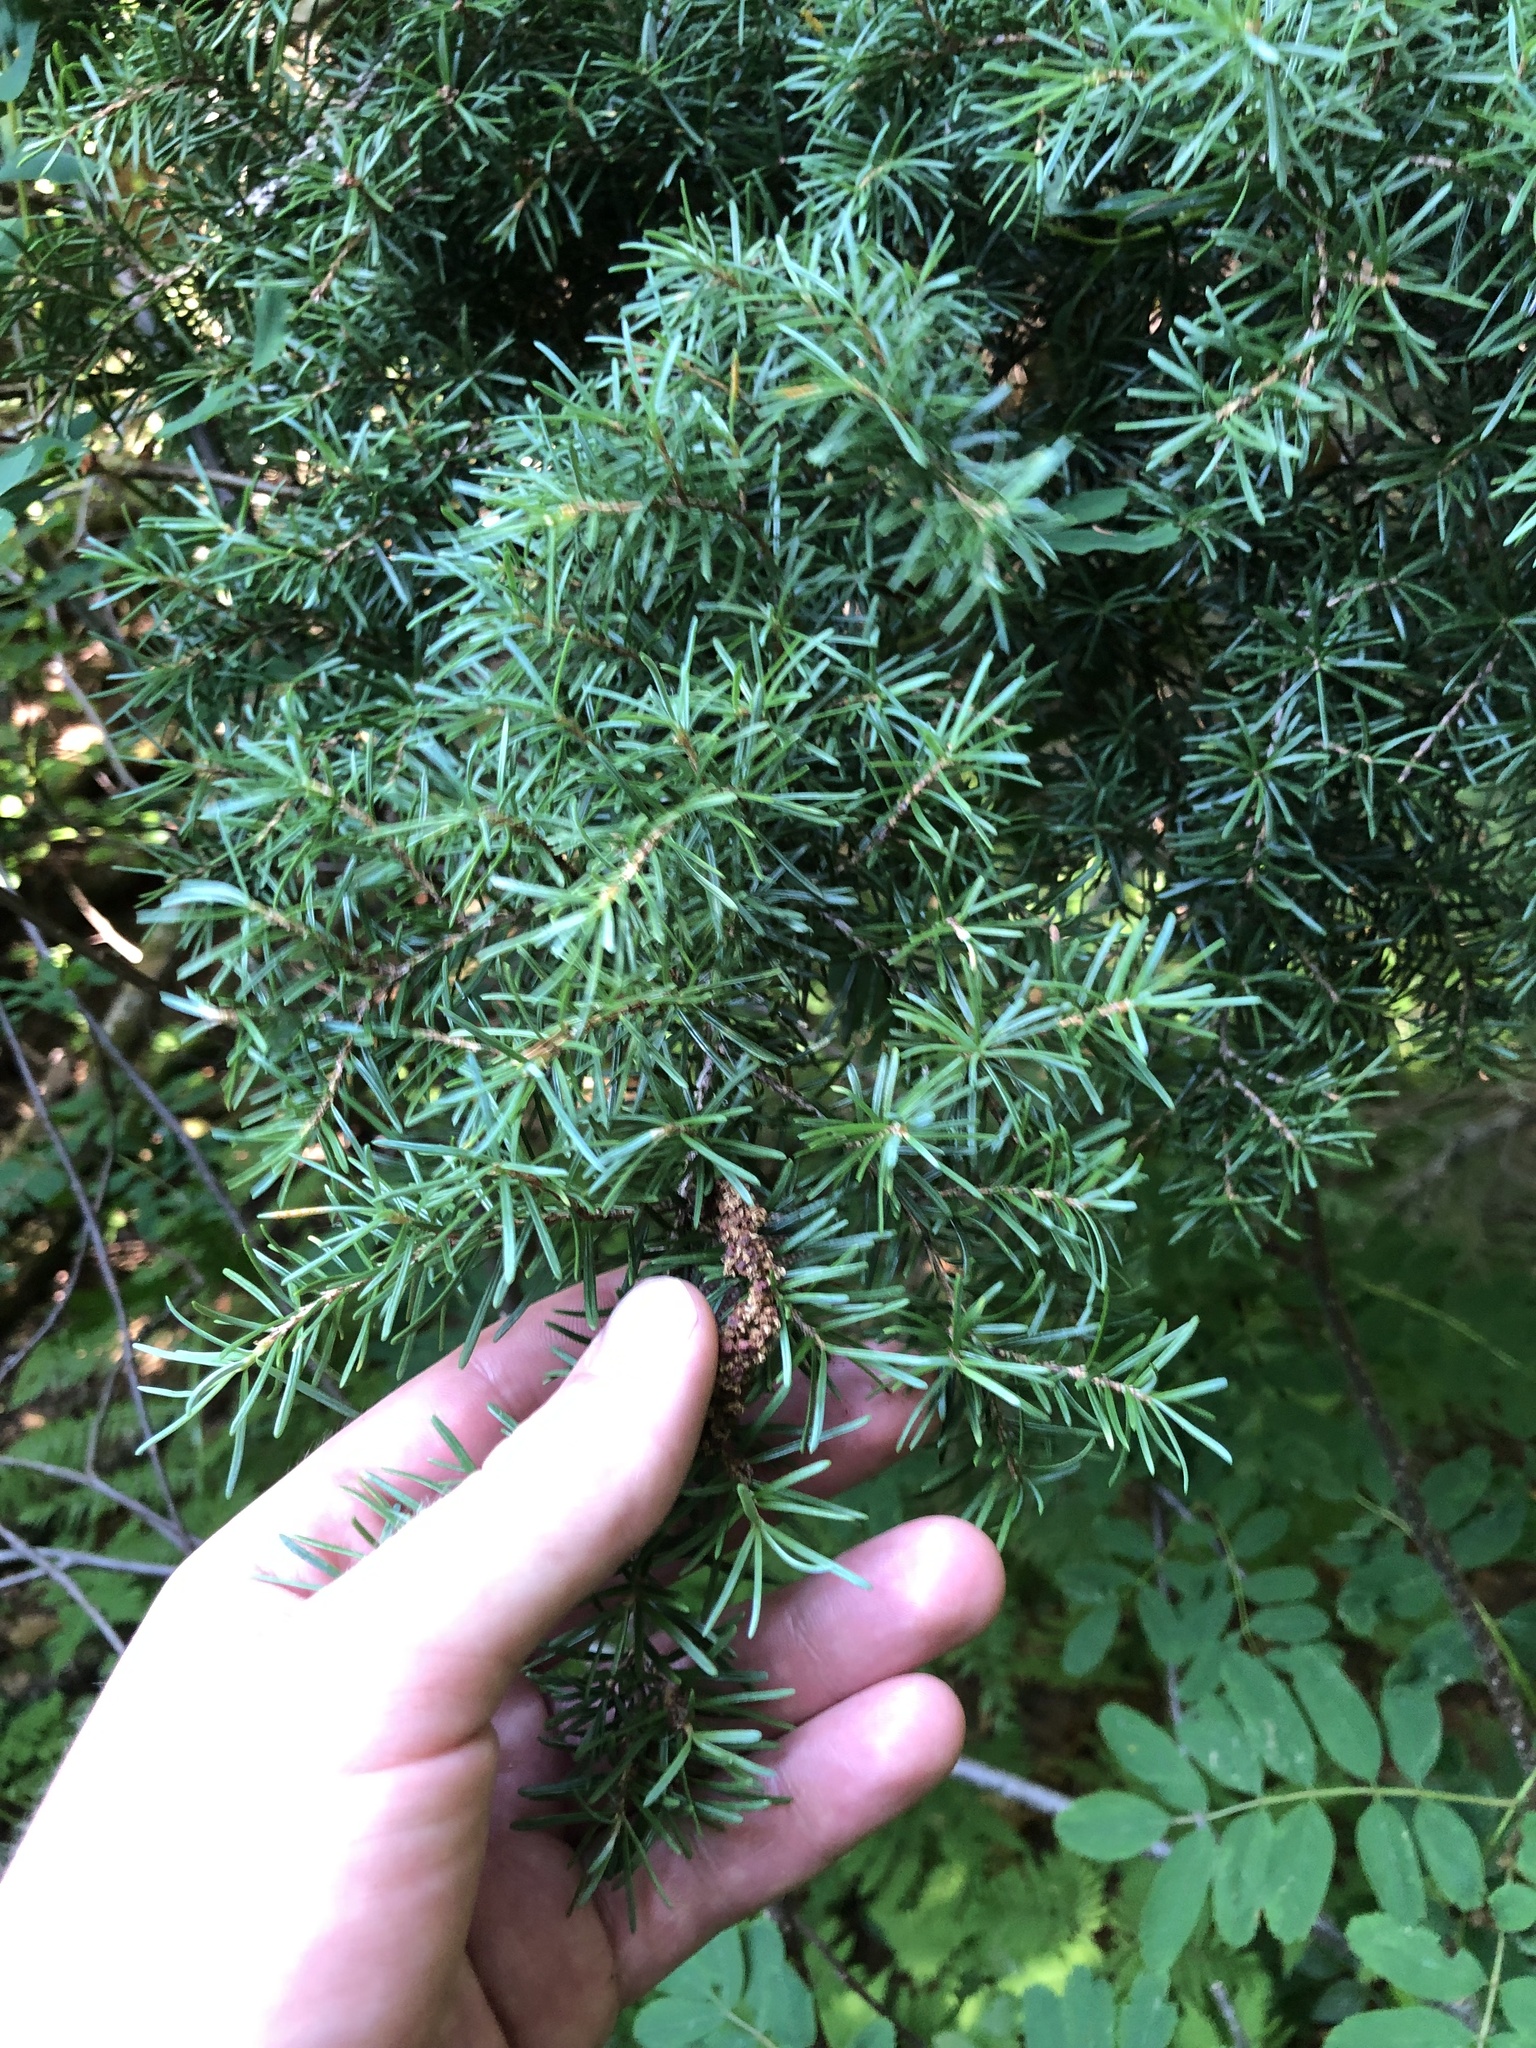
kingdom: Plantae
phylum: Tracheophyta
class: Pinopsida
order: Pinales
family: Pinaceae
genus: Tsuga
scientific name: Tsuga mertensiana
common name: Mountain hemlock
